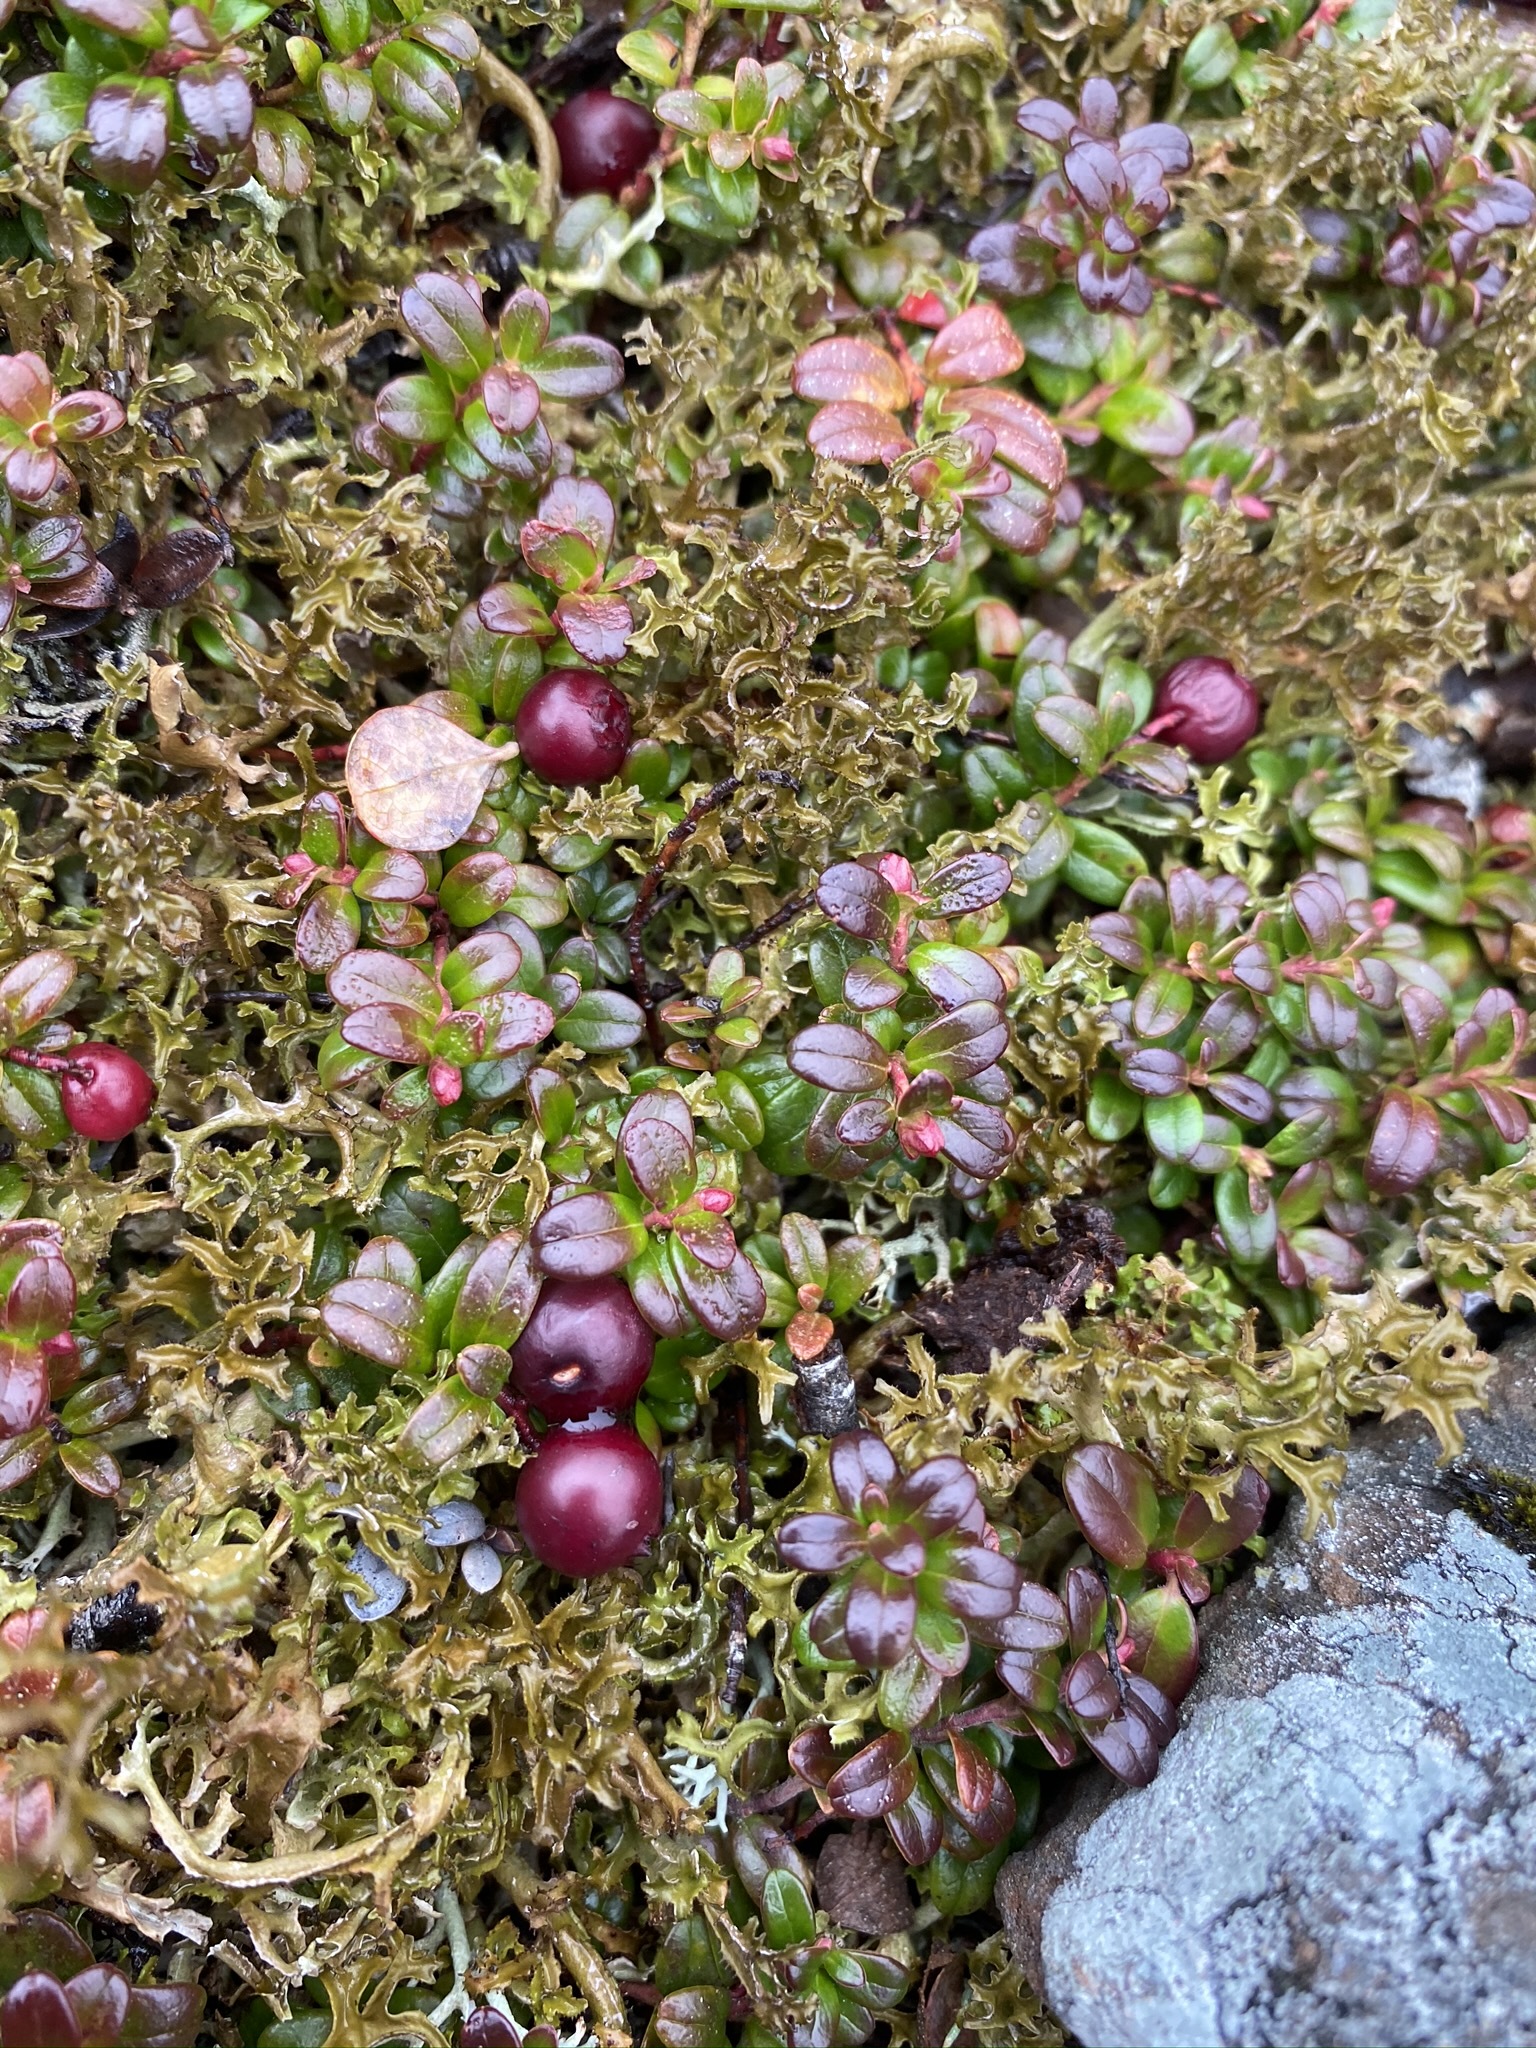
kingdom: Plantae
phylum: Tracheophyta
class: Magnoliopsida
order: Ericales
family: Ericaceae
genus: Vaccinium
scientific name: Vaccinium vitis-idaea
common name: Cowberry
